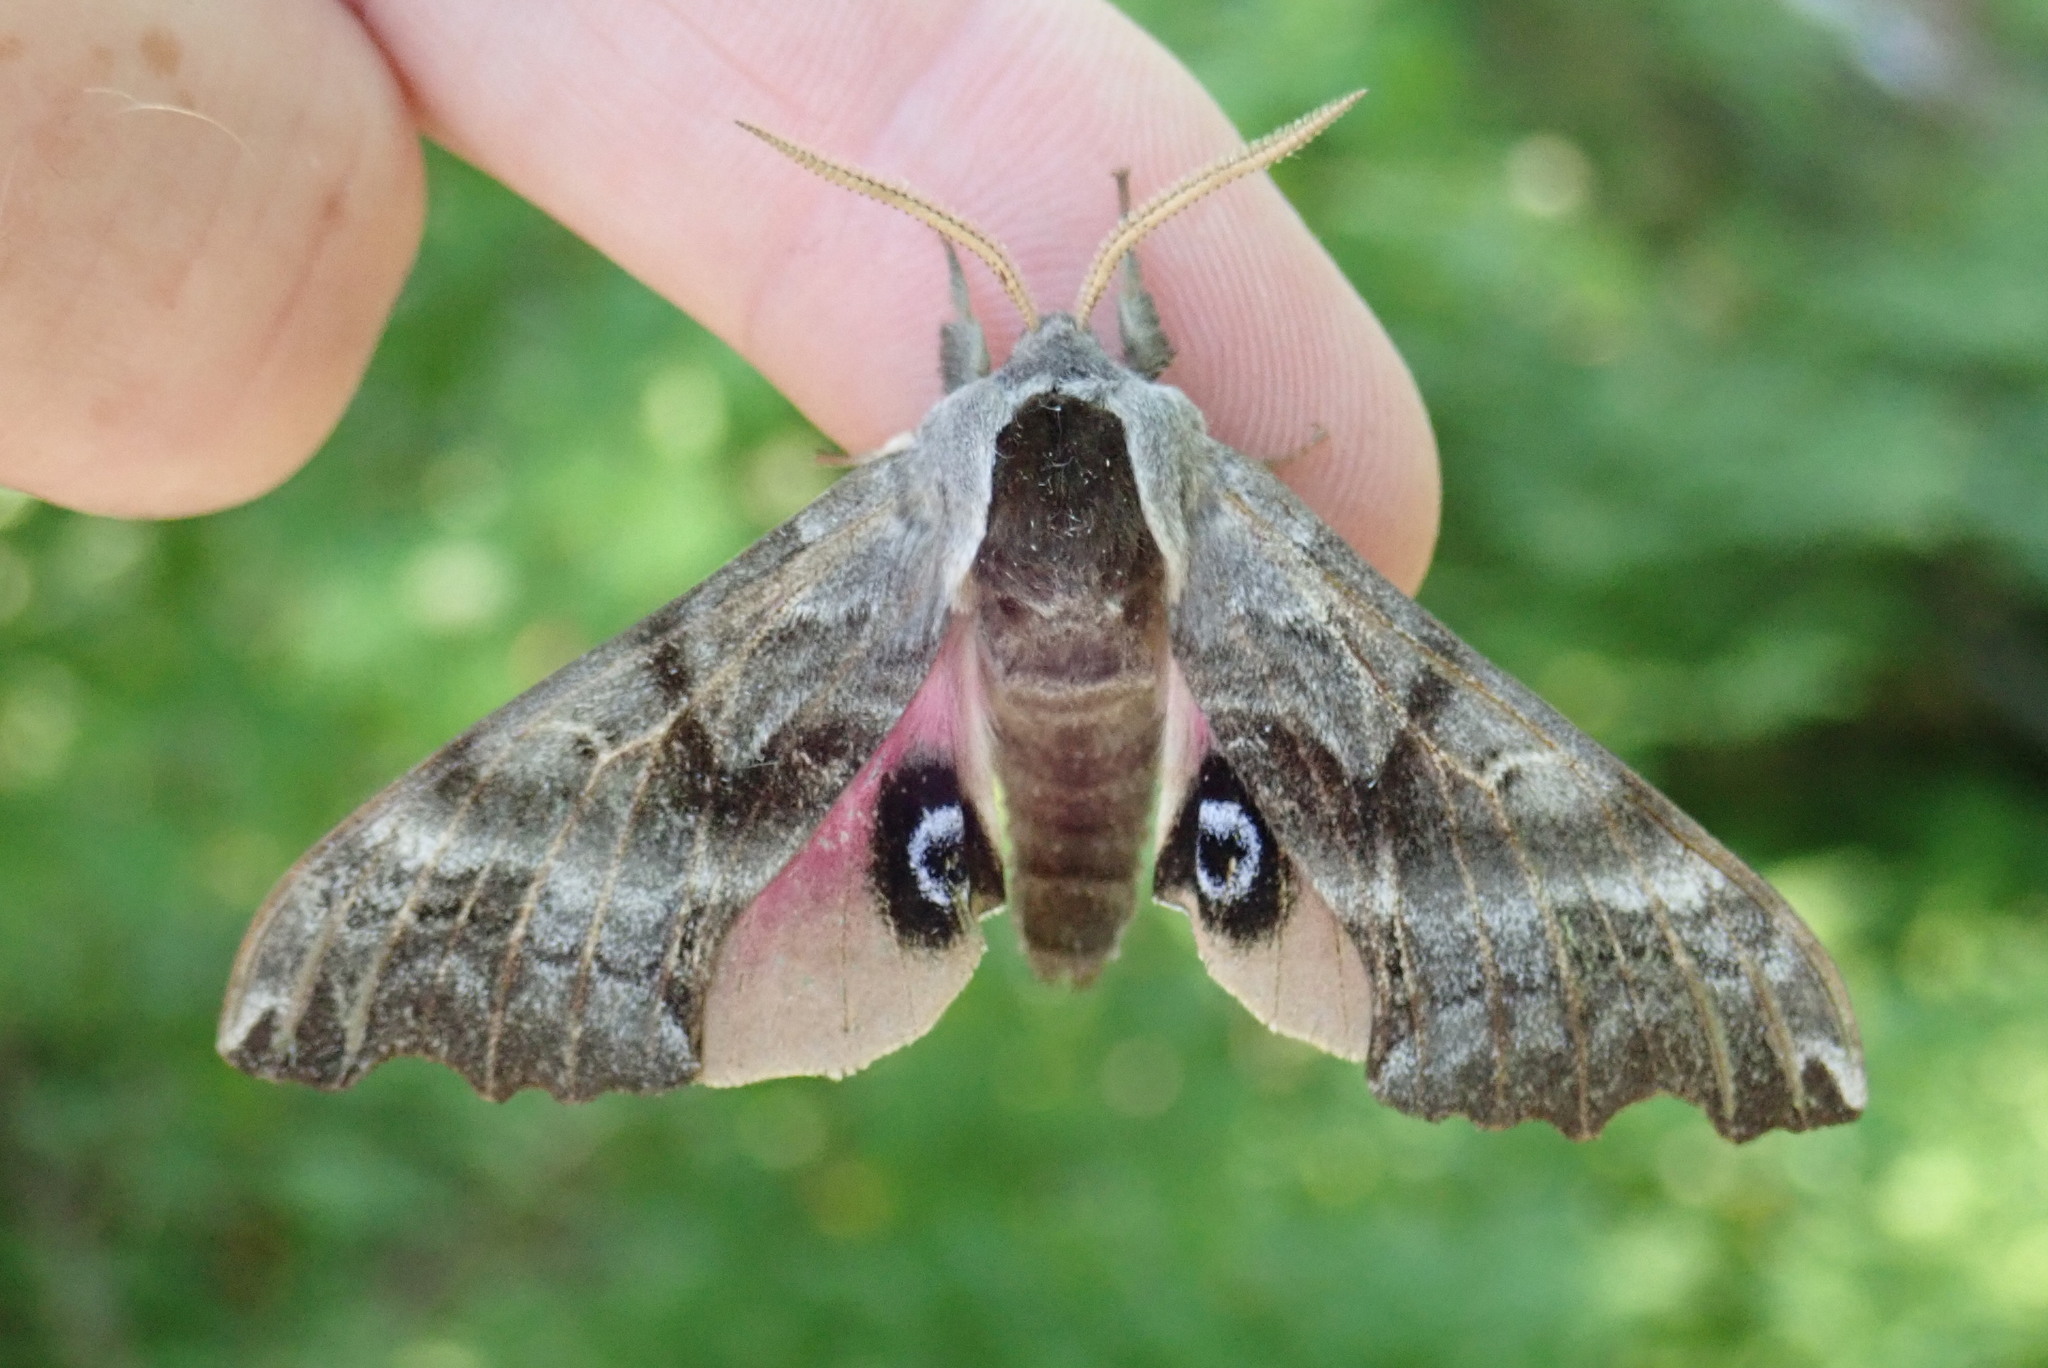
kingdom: Animalia
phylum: Arthropoda
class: Insecta
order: Lepidoptera
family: Sphingidae
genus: Smerinthus
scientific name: Smerinthus cerisyi
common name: Cerisy's sphinx moth
